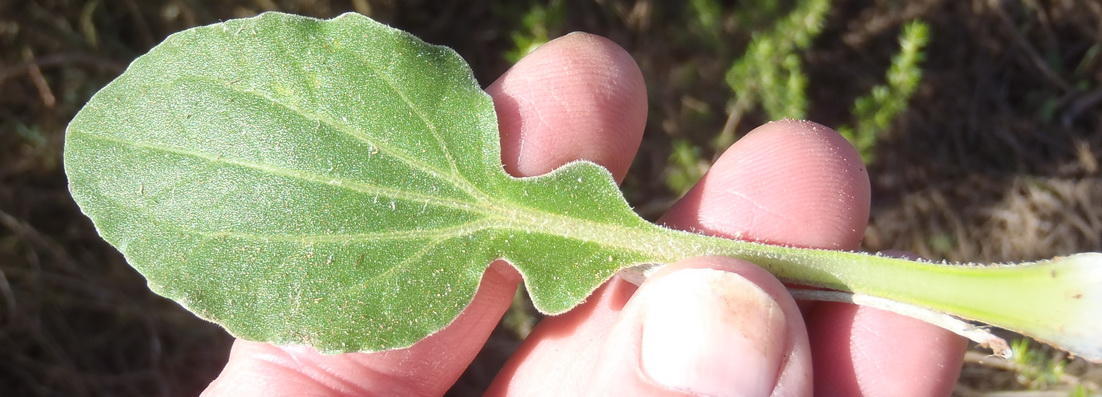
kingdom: Plantae
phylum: Tracheophyta
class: Magnoliopsida
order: Asterales
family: Asteraceae
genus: Arctotis
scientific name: Arctotis acaulis
